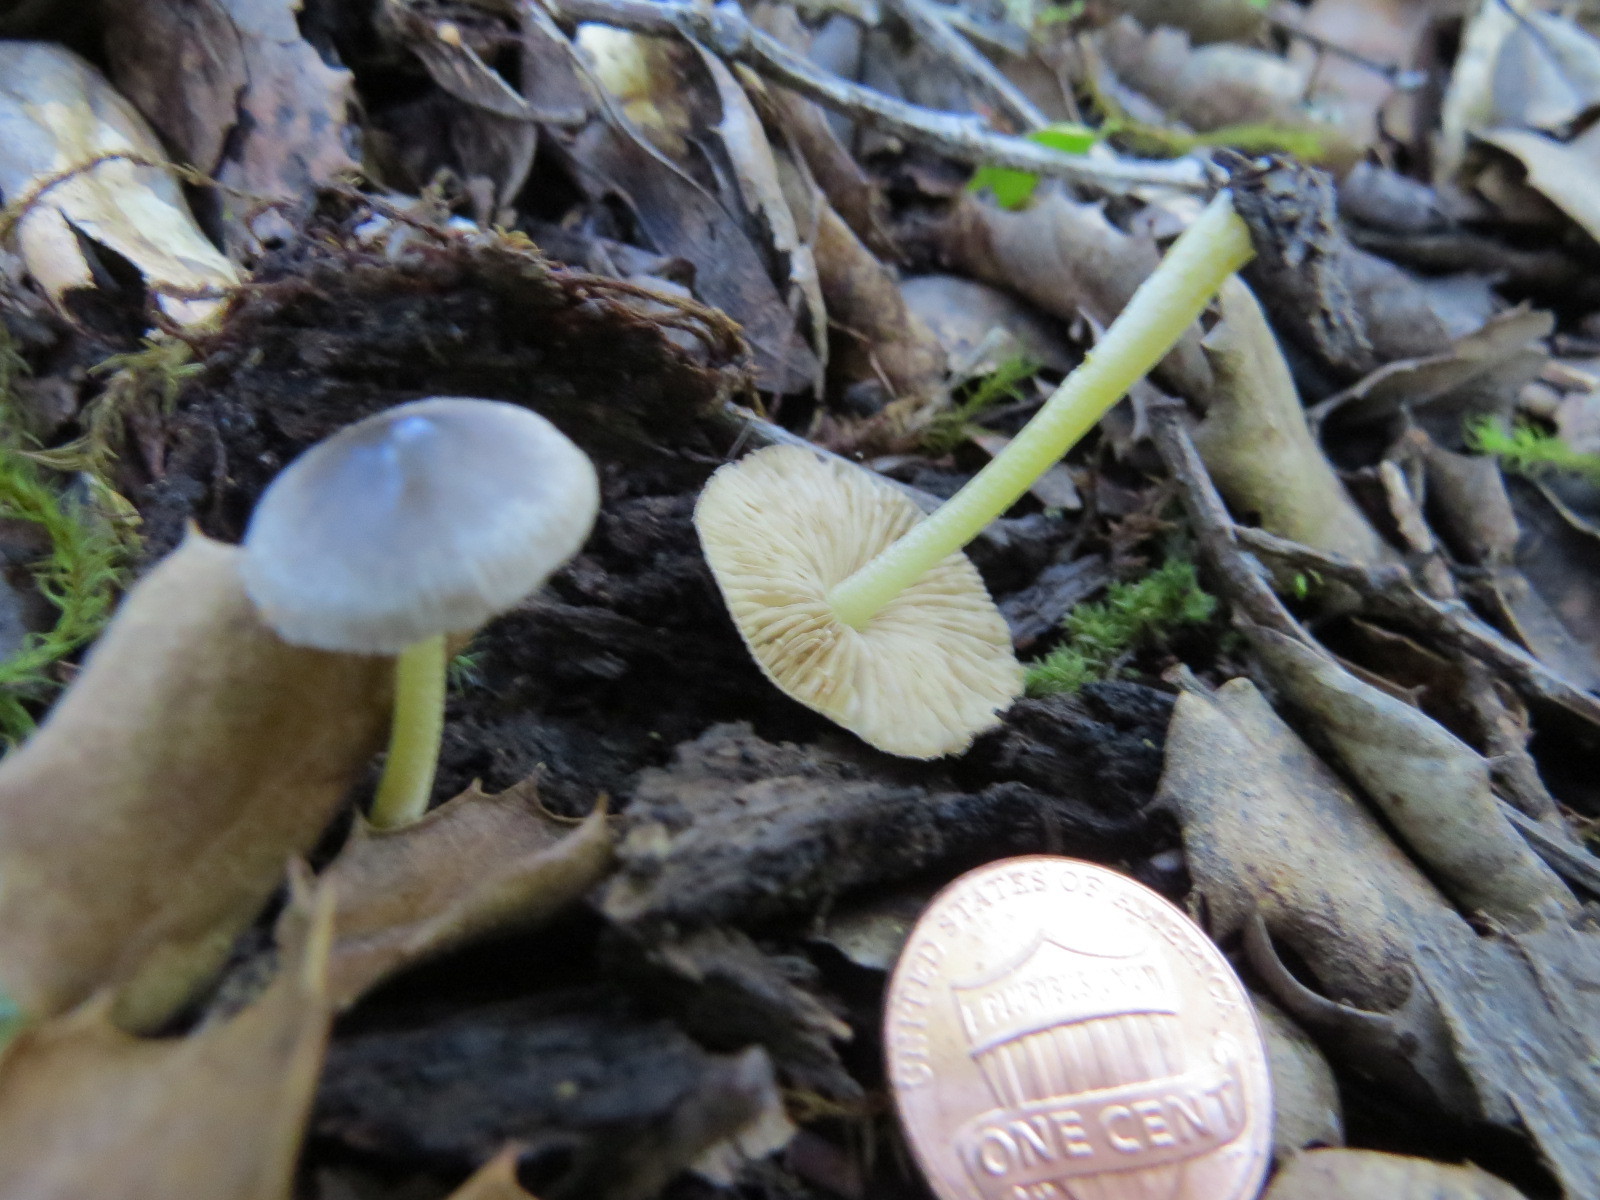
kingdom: Fungi
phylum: Basidiomycota
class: Agaricomycetes
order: Agaricales
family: Bolbitiaceae
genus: Bolbitius
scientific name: Bolbitius reticulatus
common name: Netted fieldcap
